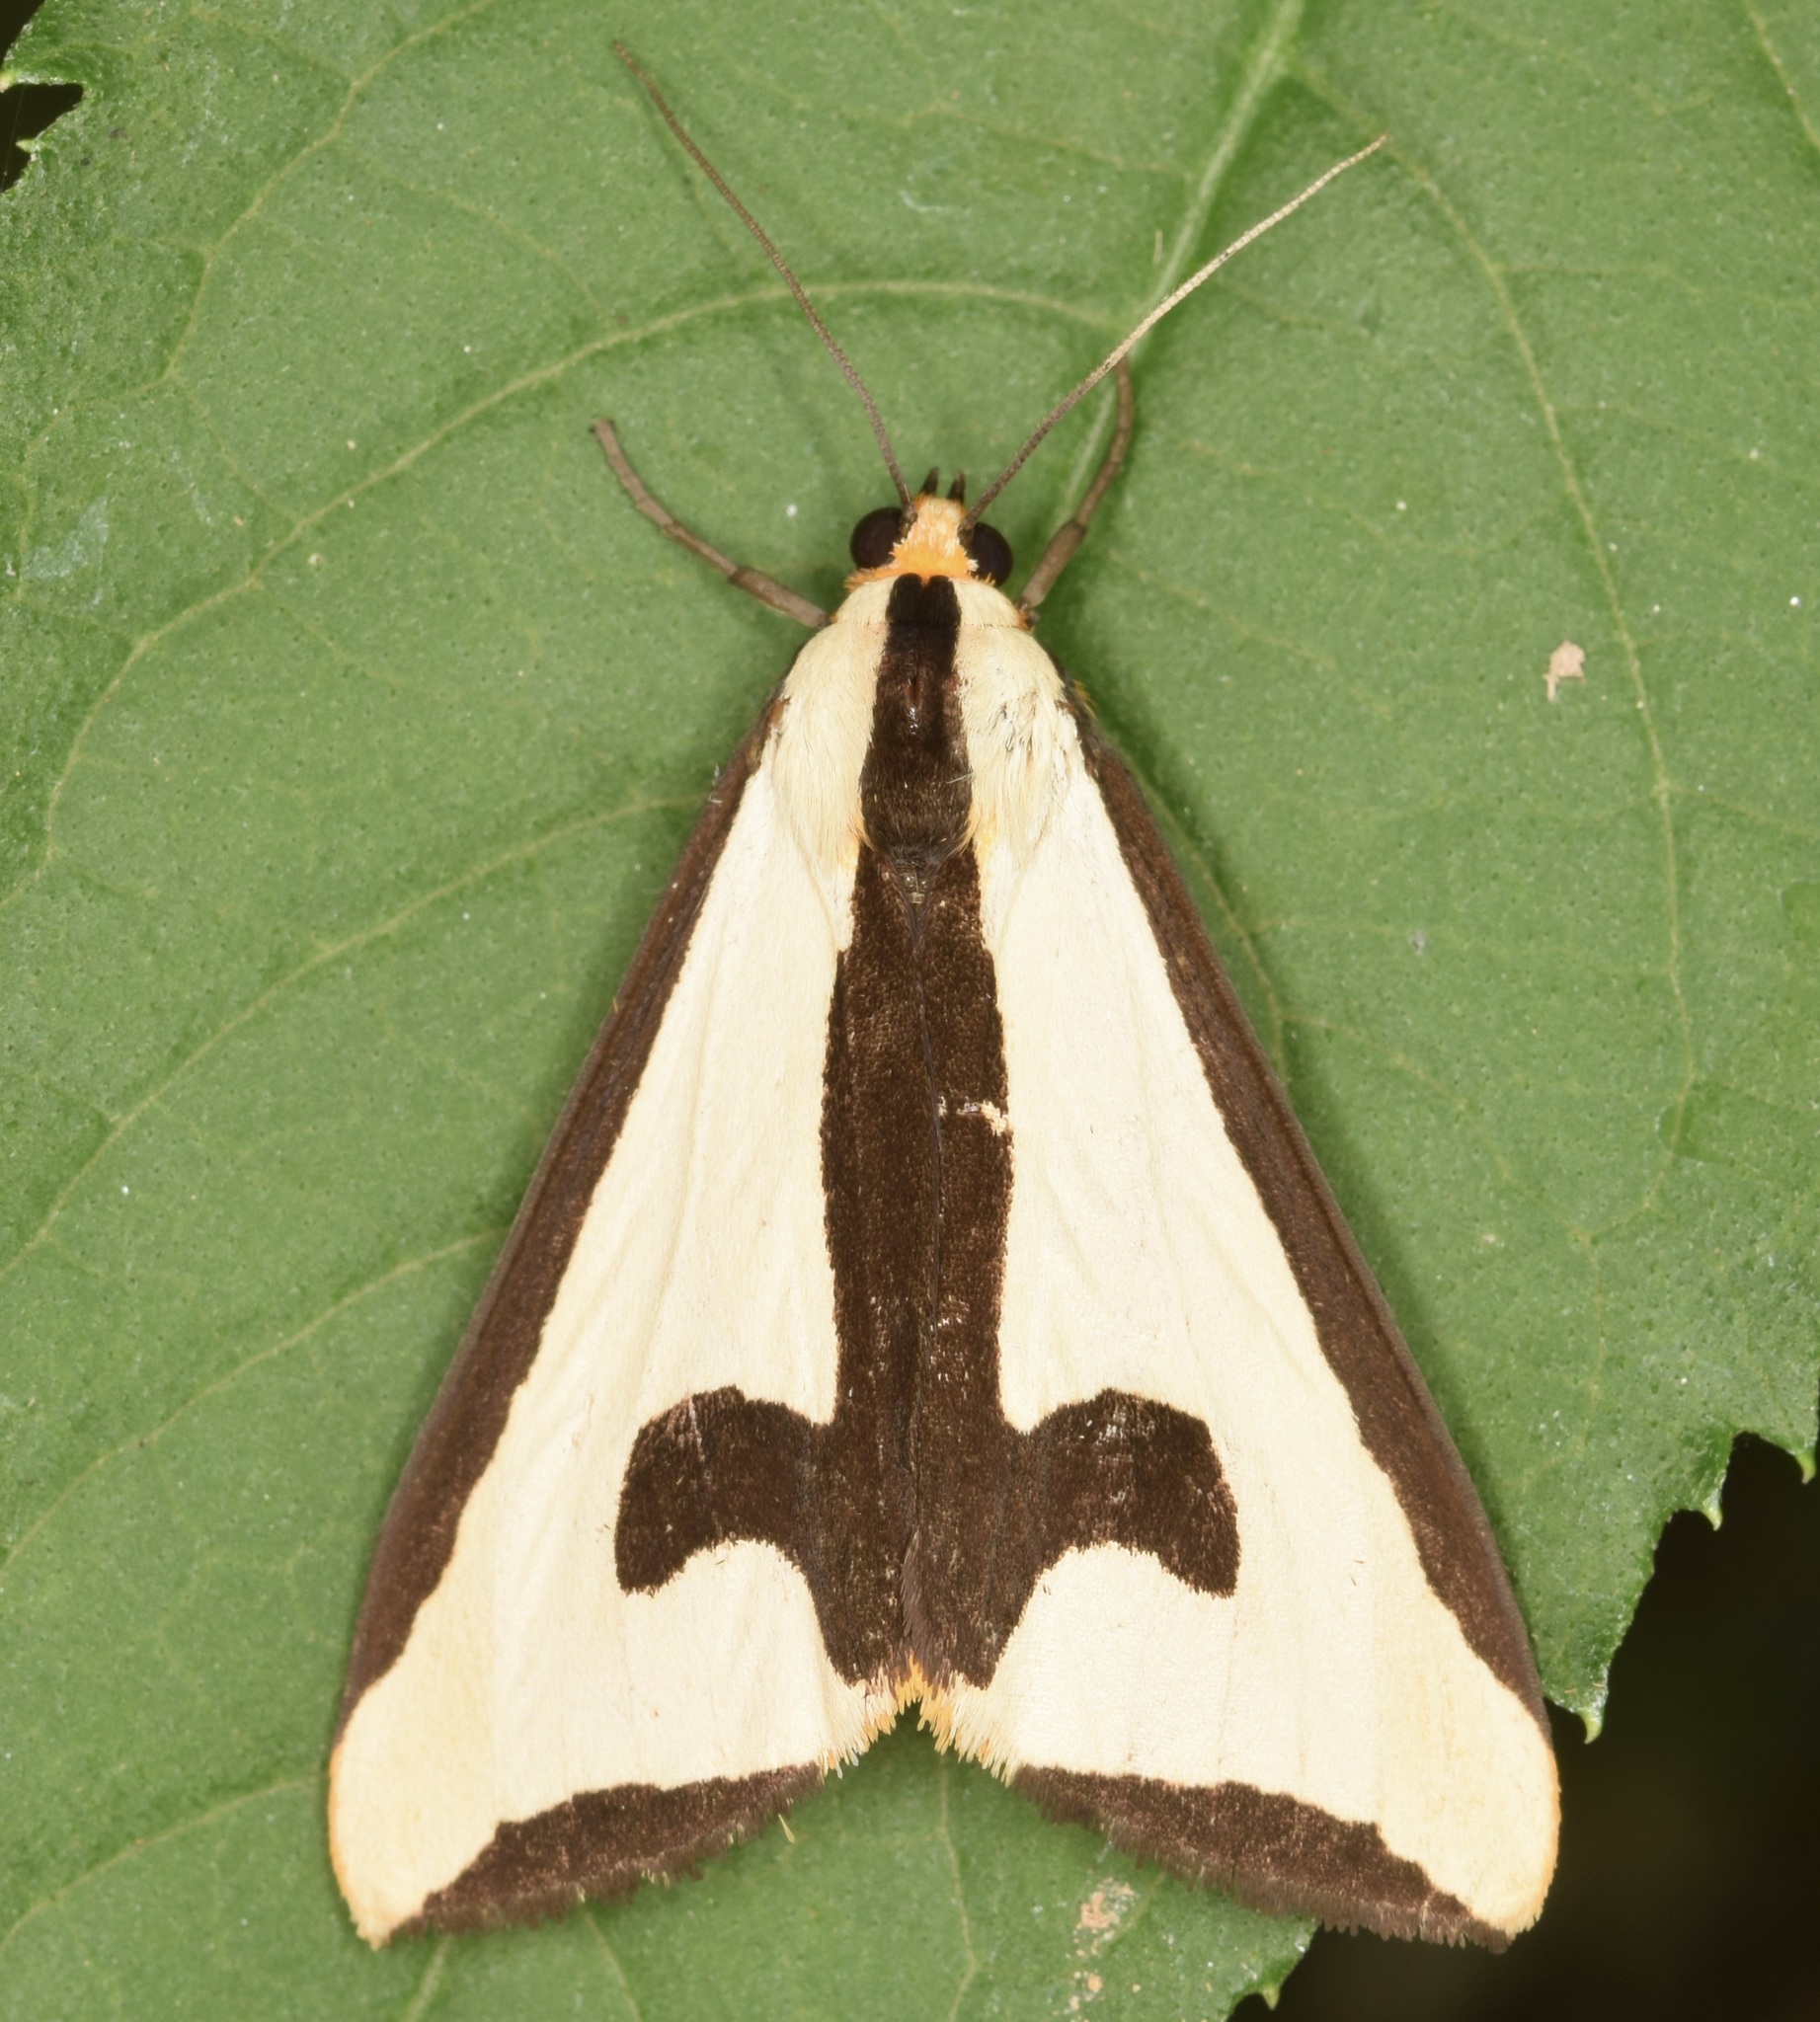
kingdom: Animalia
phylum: Arthropoda
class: Insecta
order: Lepidoptera
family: Erebidae
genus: Haploa
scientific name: Haploa clymene
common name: Clymene moth
